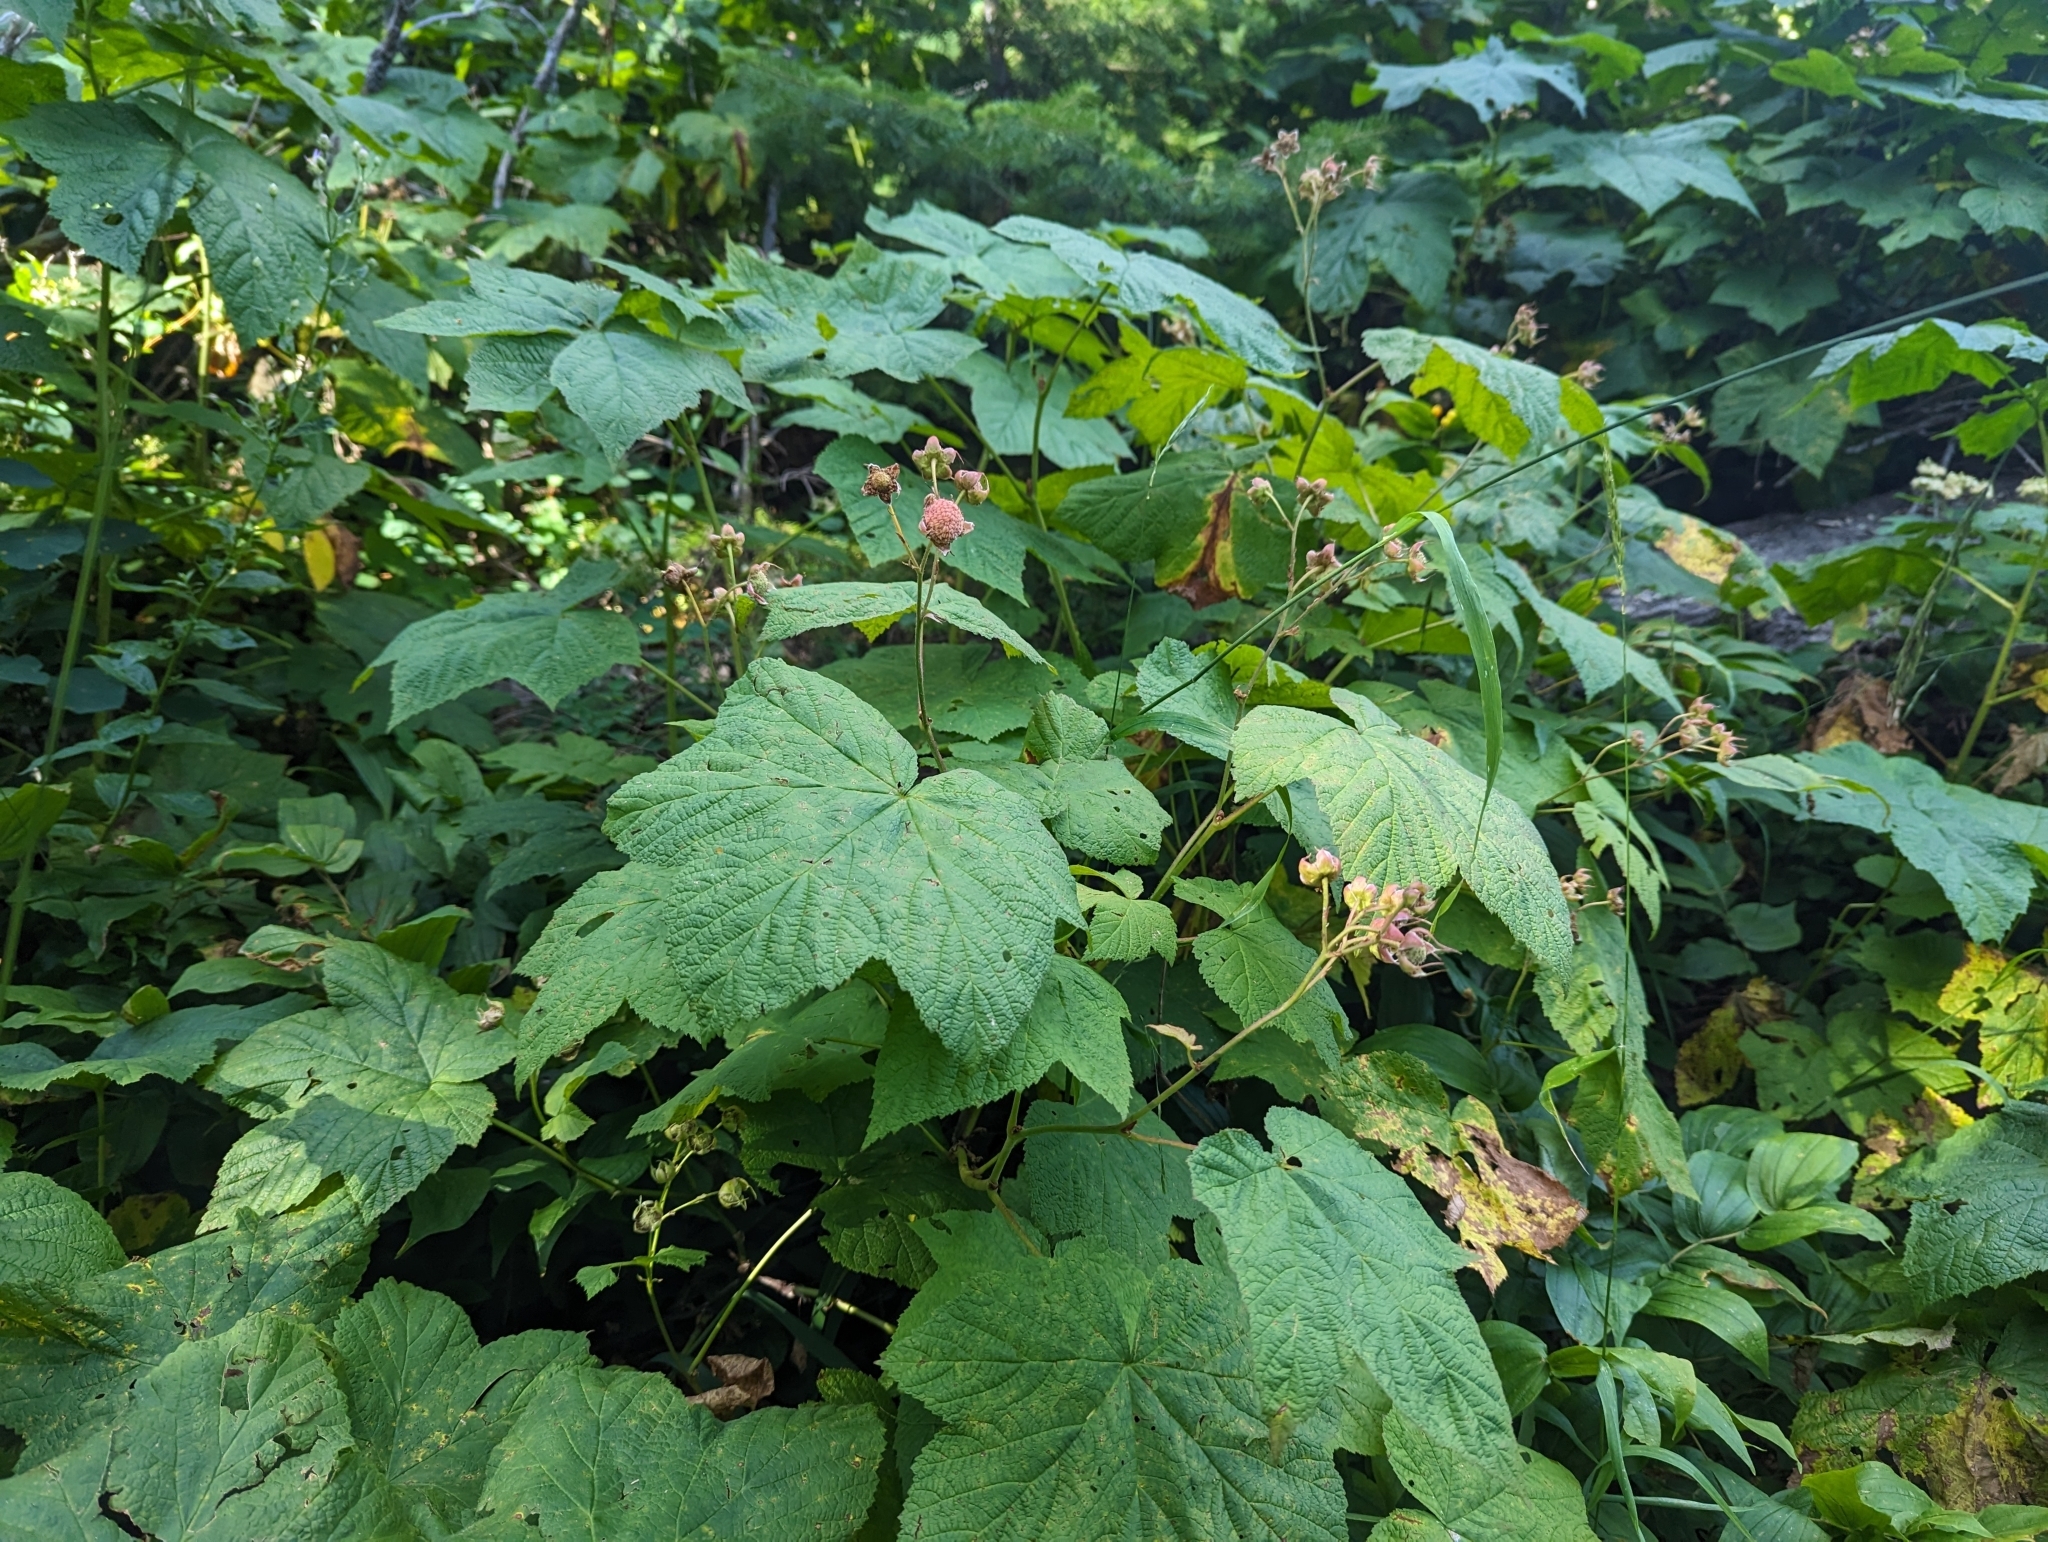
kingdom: Plantae
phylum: Tracheophyta
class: Magnoliopsida
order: Rosales
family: Rosaceae
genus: Rubus
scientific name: Rubus parviflorus
